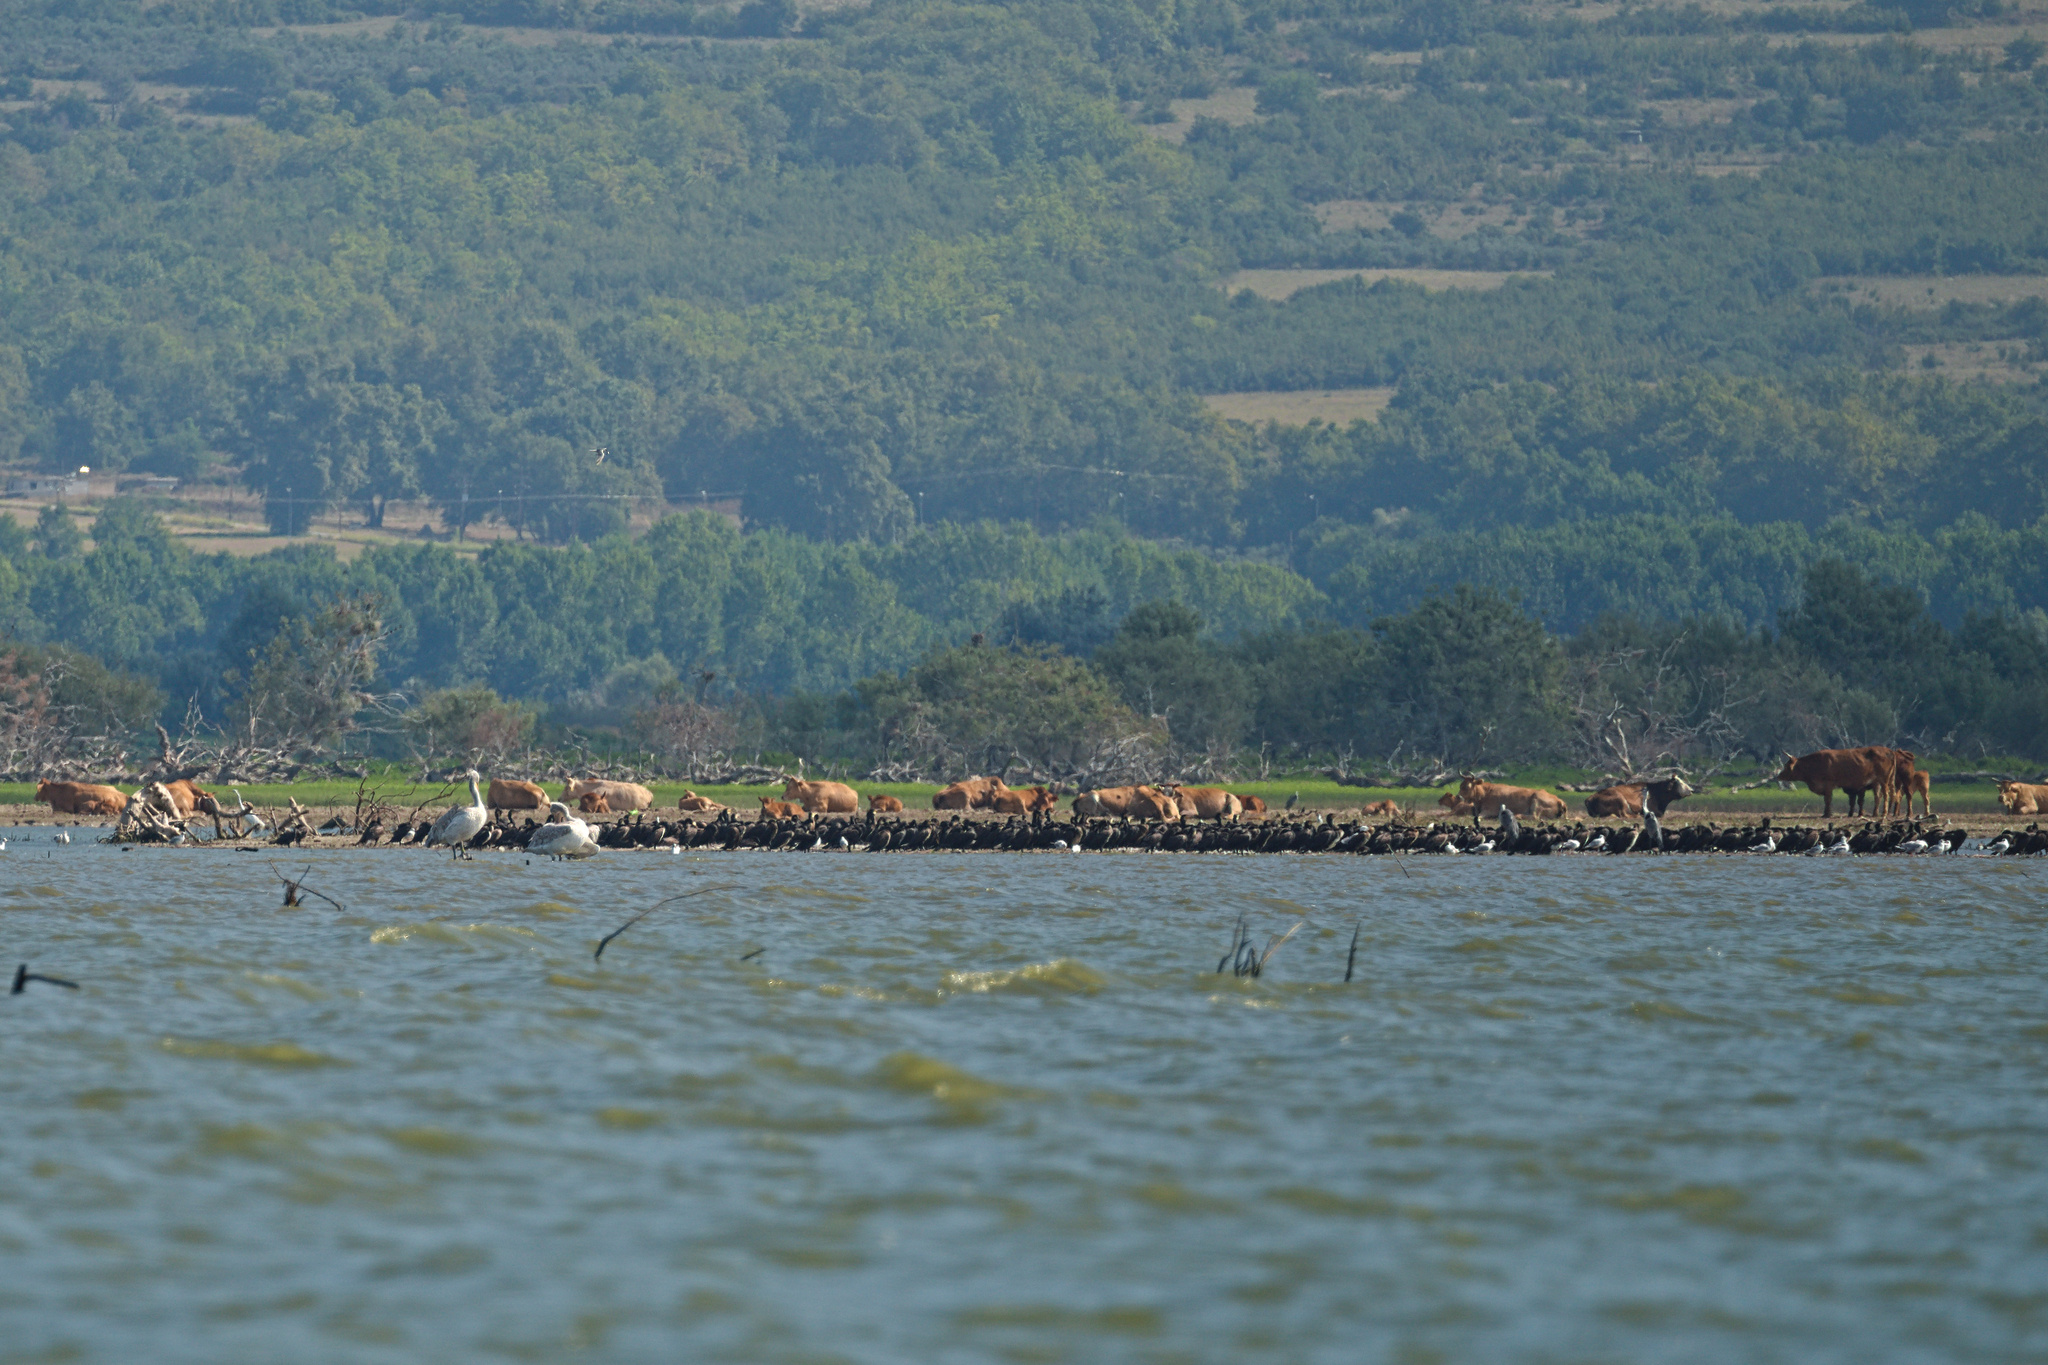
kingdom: Animalia
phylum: Chordata
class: Aves
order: Suliformes
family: Phalacrocoracidae
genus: Phalacrocorax
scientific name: Phalacrocorax carbo
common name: Great cormorant
